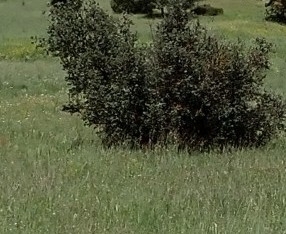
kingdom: Plantae
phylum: Tracheophyta
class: Magnoliopsida
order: Fagales
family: Fagaceae
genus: Quercus
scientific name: Quercus rotundifolia
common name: Holm oak
